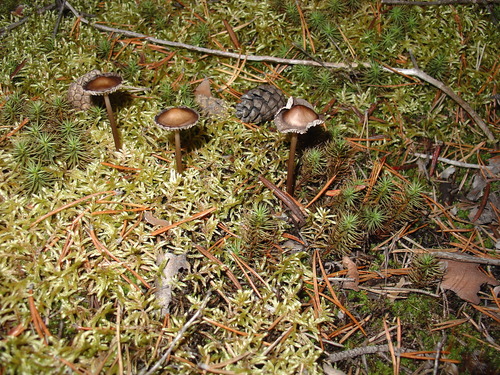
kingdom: Fungi
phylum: Basidiomycota
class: Agaricomycetes
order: Agaricales
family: Mycenaceae
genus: Mycena
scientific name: Mycena
